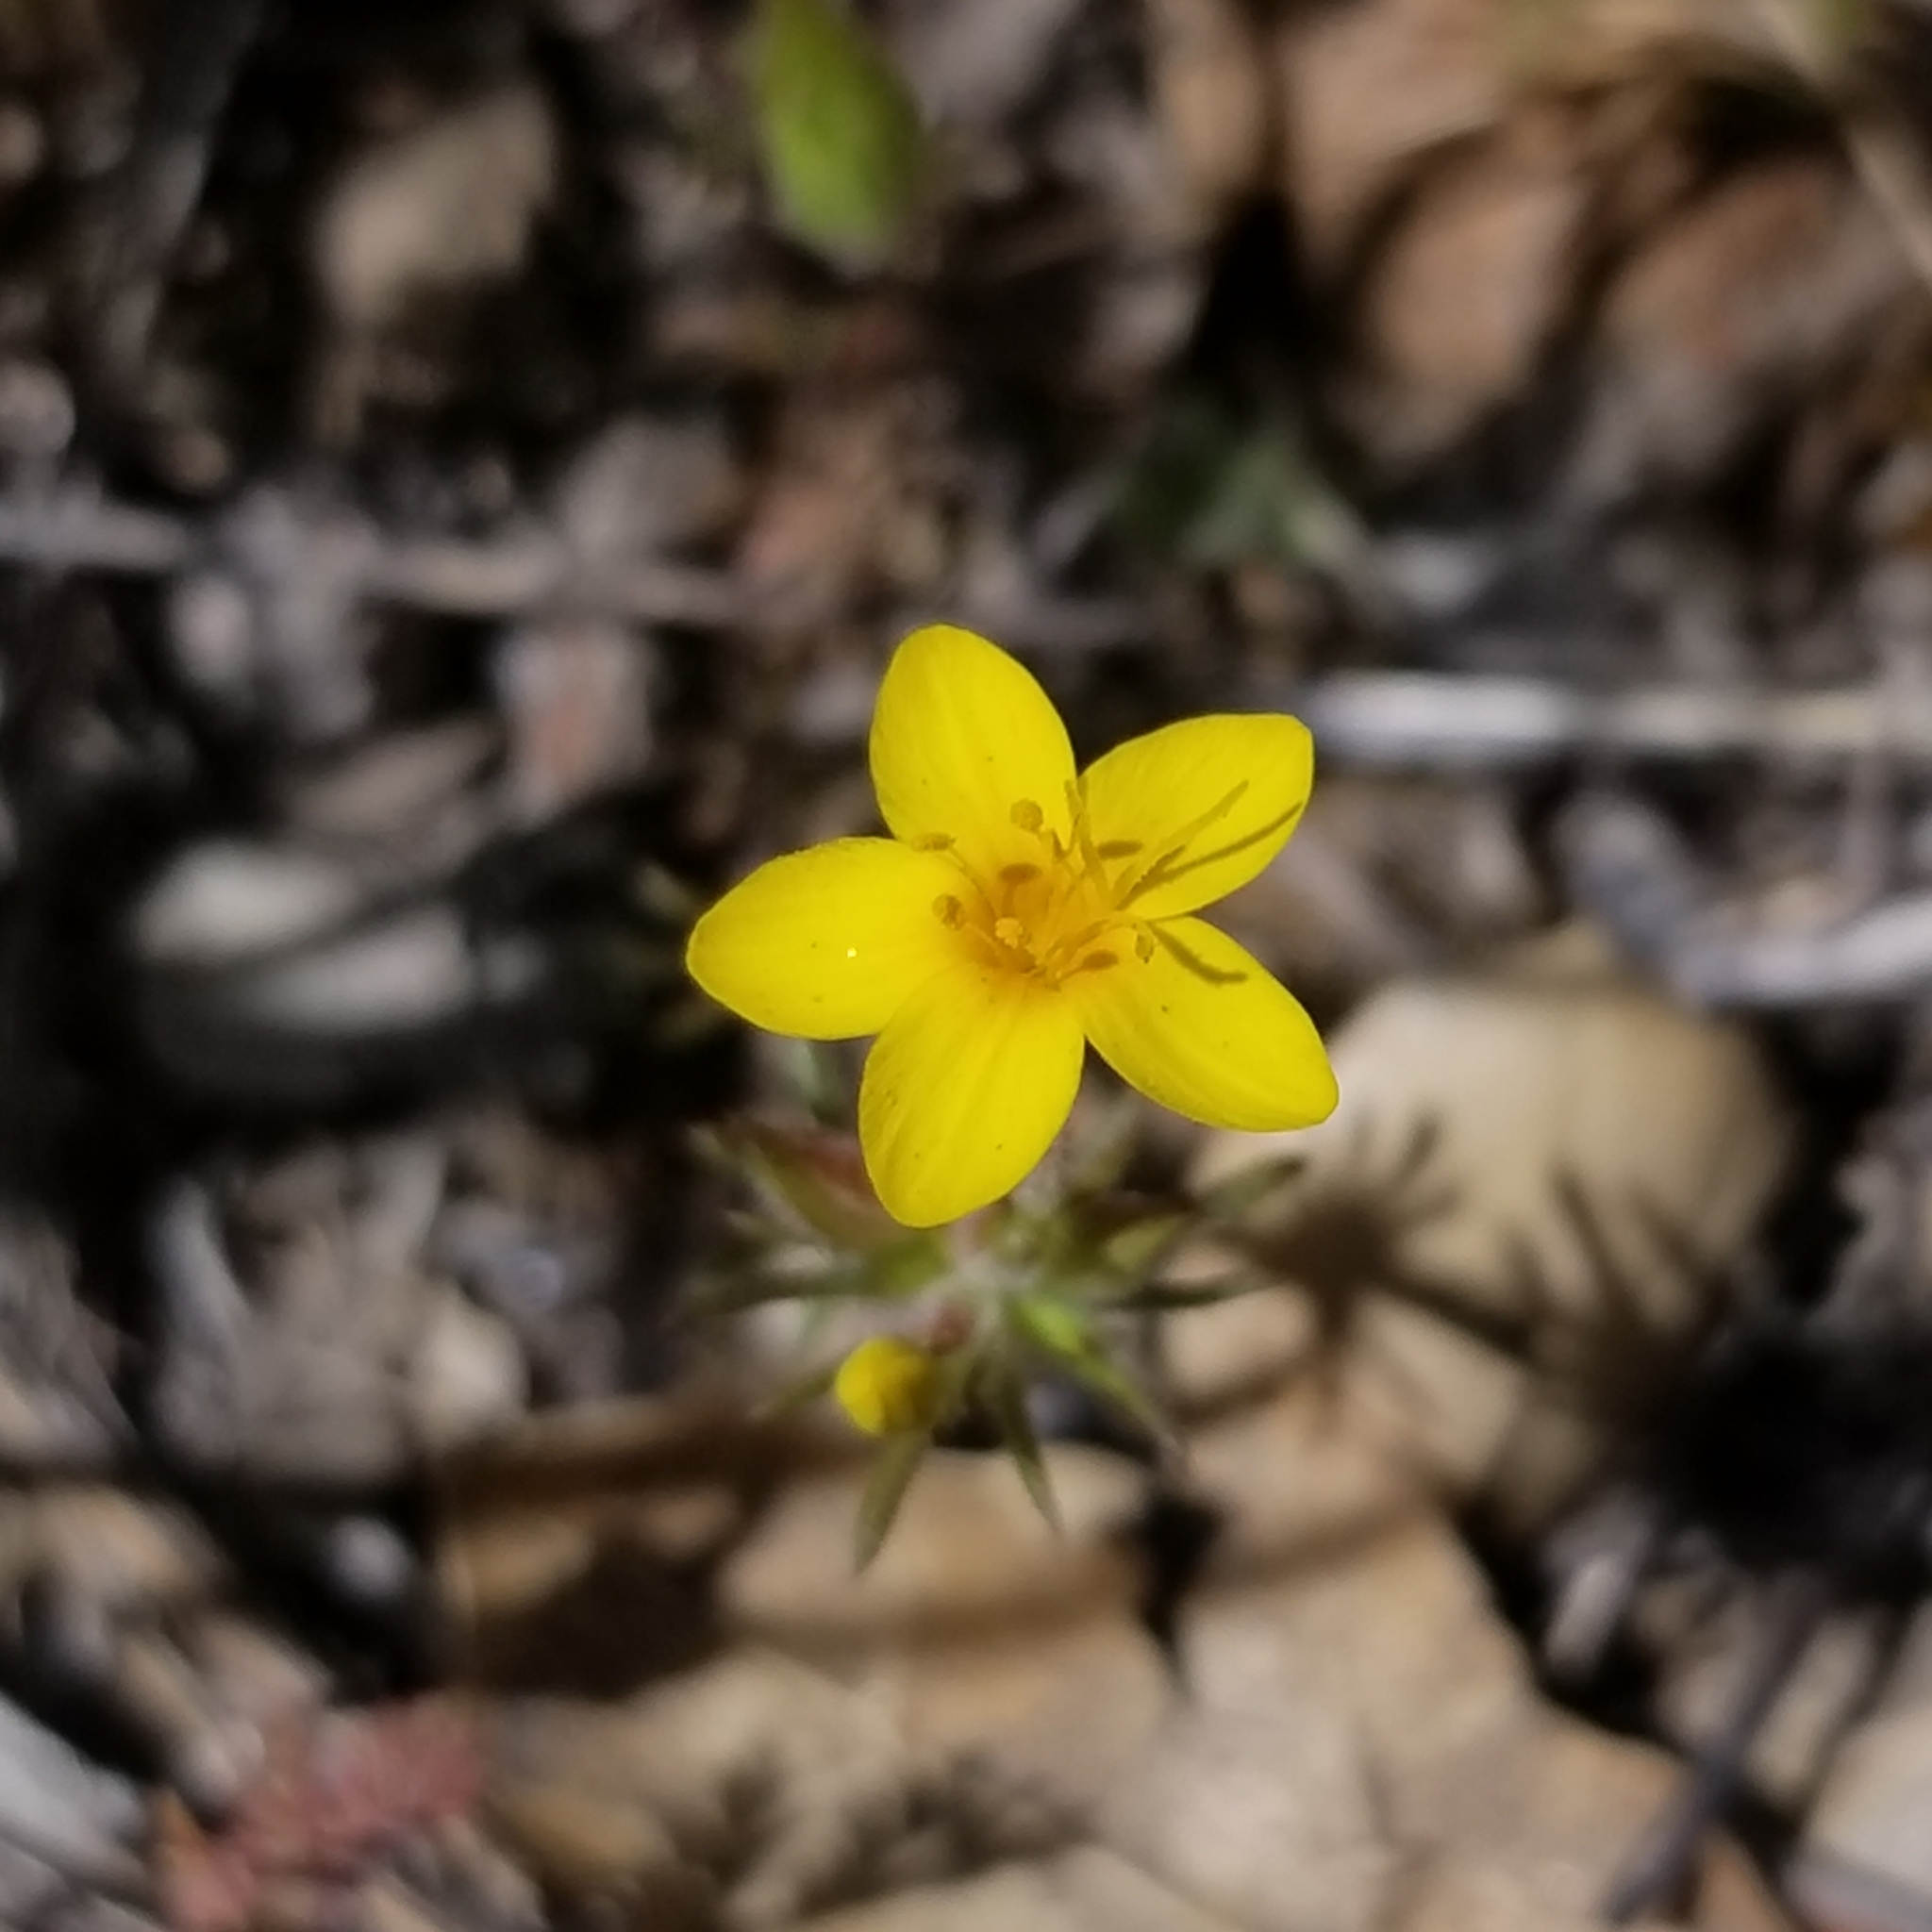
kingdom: Plantae
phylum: Tracheophyta
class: Magnoliopsida
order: Ericales
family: Polemoniaceae
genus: Leptosiphon
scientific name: Leptosiphon parviflorus
